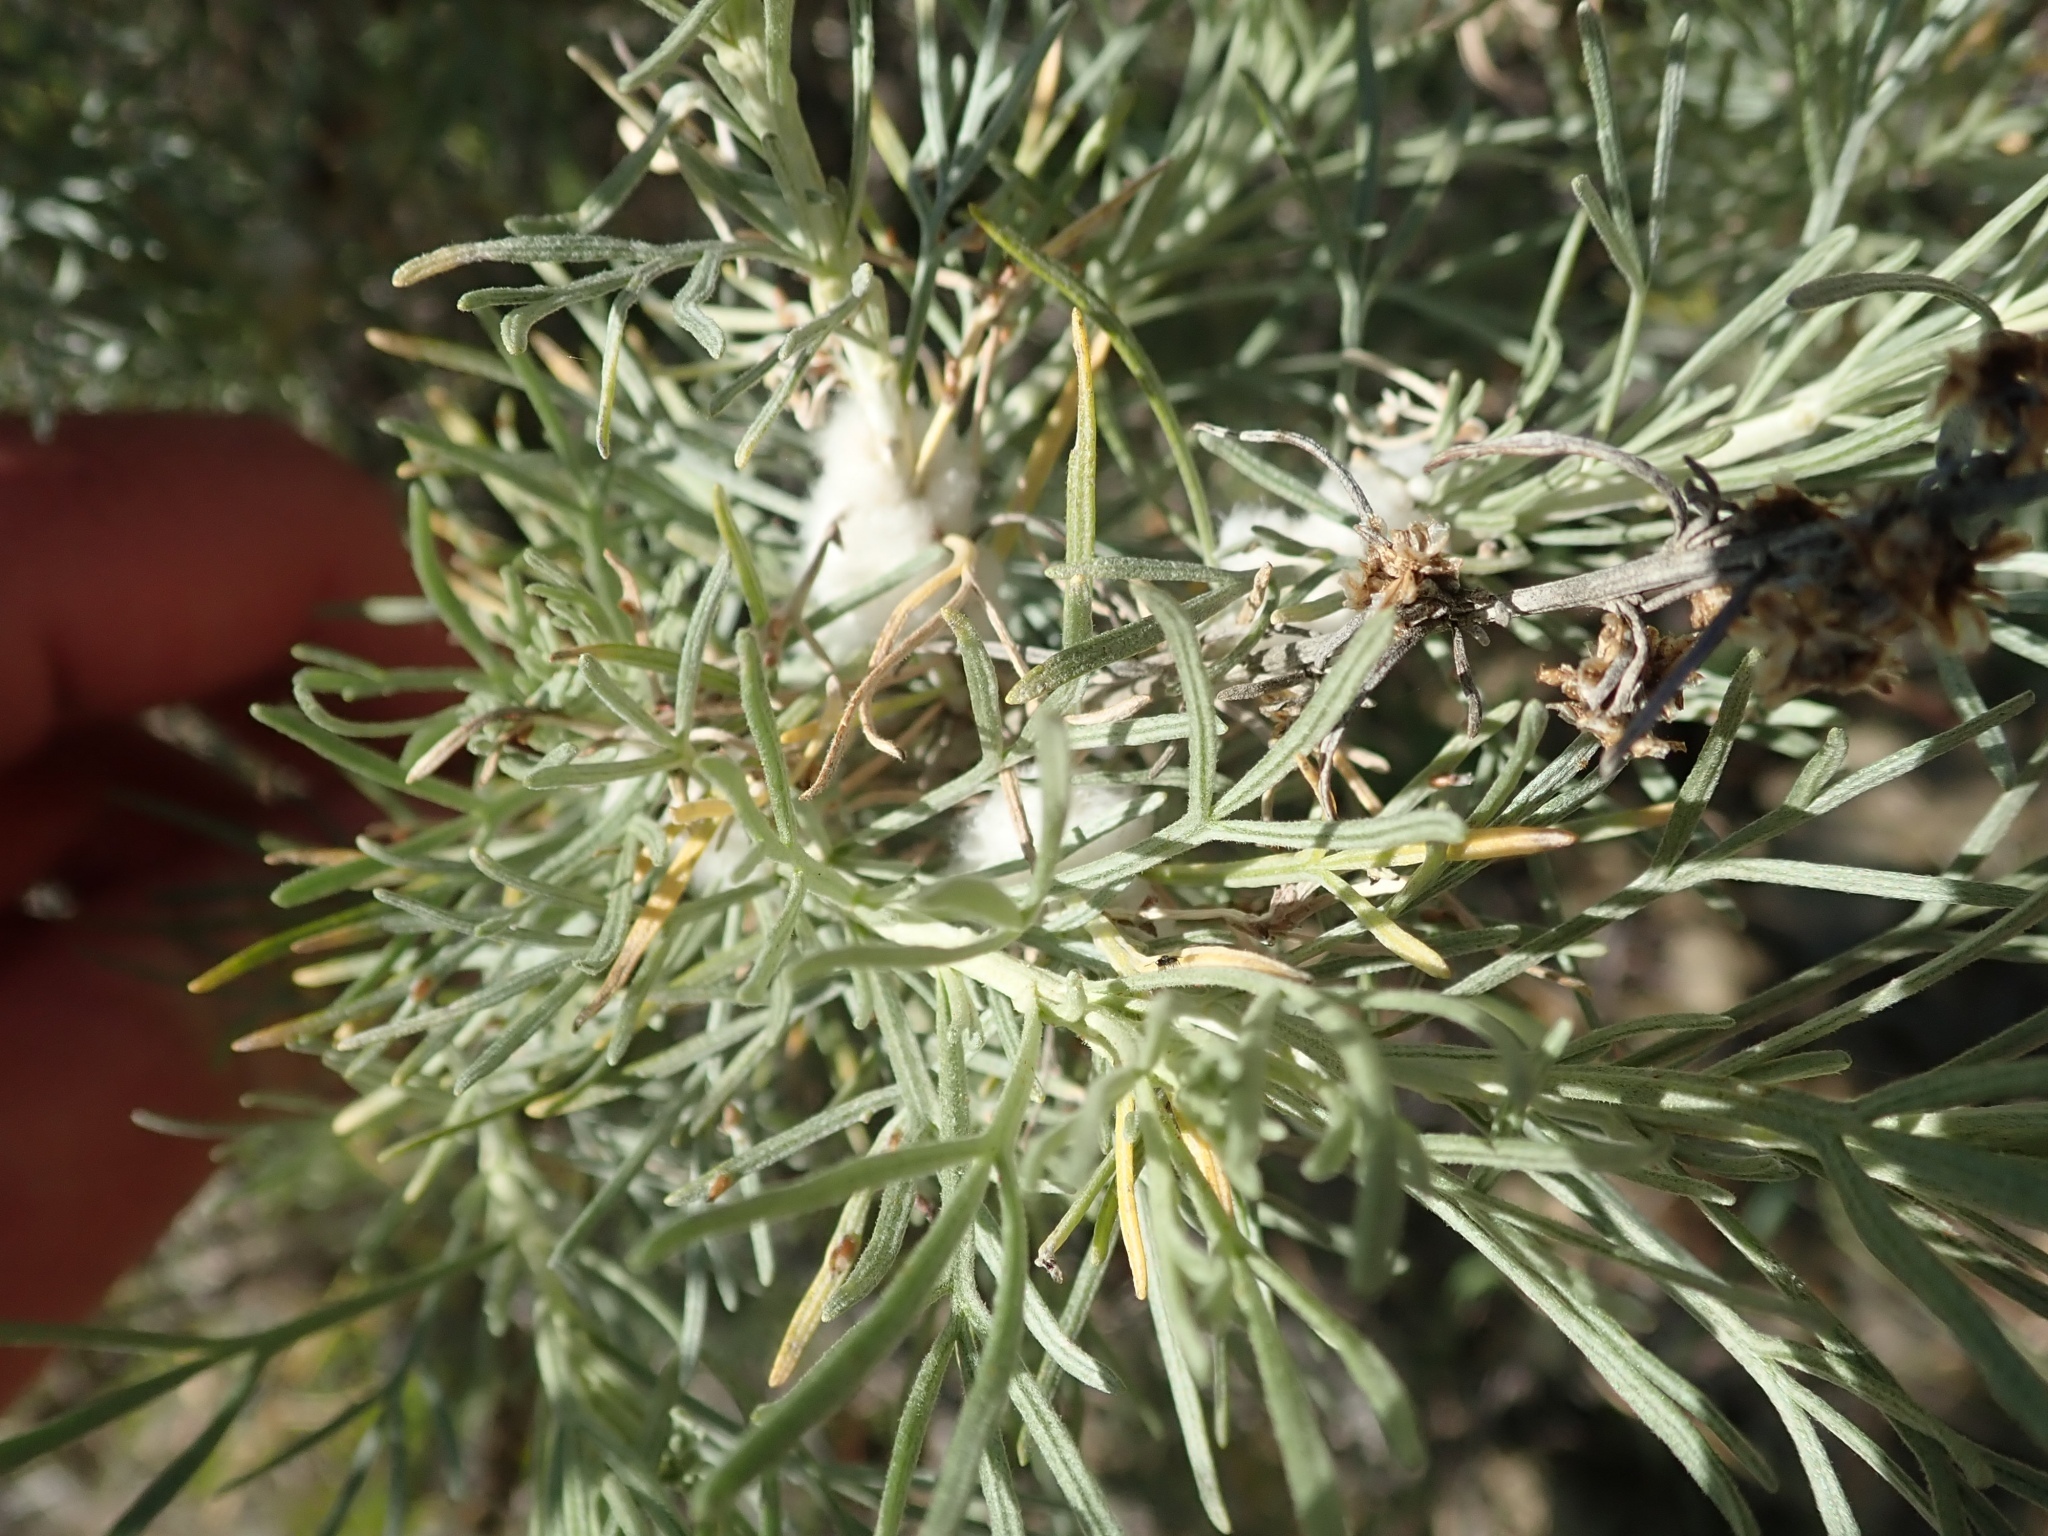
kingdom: Animalia
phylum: Arthropoda
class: Insecta
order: Diptera
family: Cecidomyiidae
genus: Rhopalomyia
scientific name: Rhopalomyia floccosa
